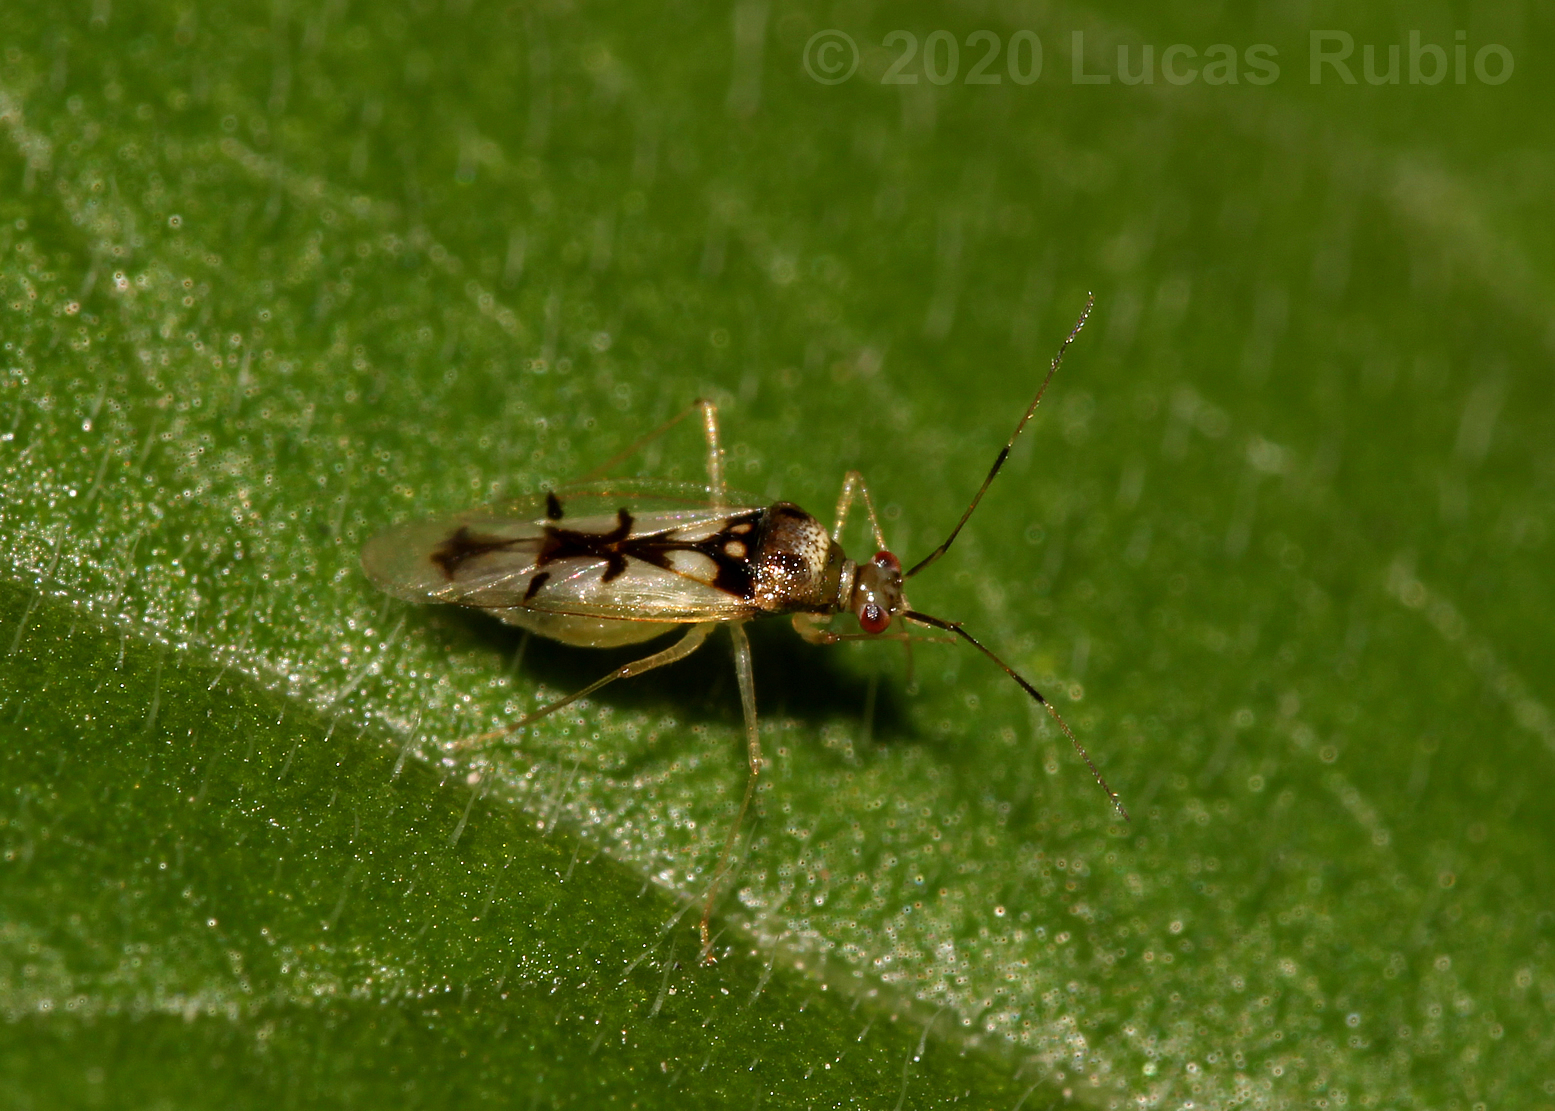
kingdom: Animalia
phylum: Arthropoda
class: Insecta
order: Hemiptera
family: Miridae
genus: Hyaliodocoris
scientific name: Hyaliodocoris insignis
